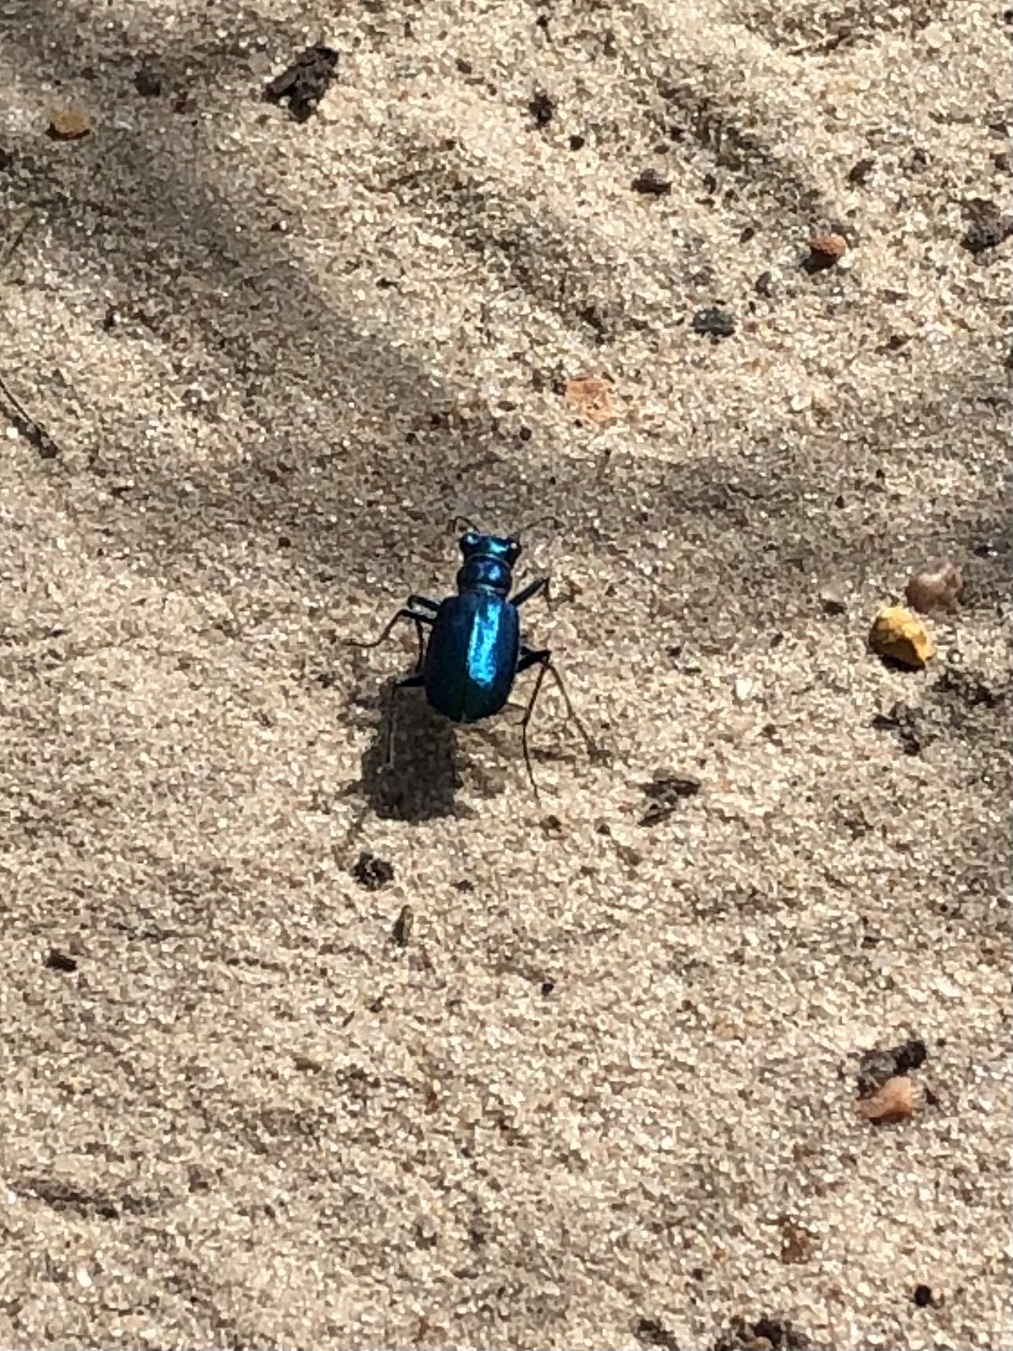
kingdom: Animalia
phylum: Arthropoda
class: Insecta
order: Coleoptera
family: Carabidae
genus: Cicindela
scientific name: Cicindela scutellaris
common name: Festive tiger beetle
